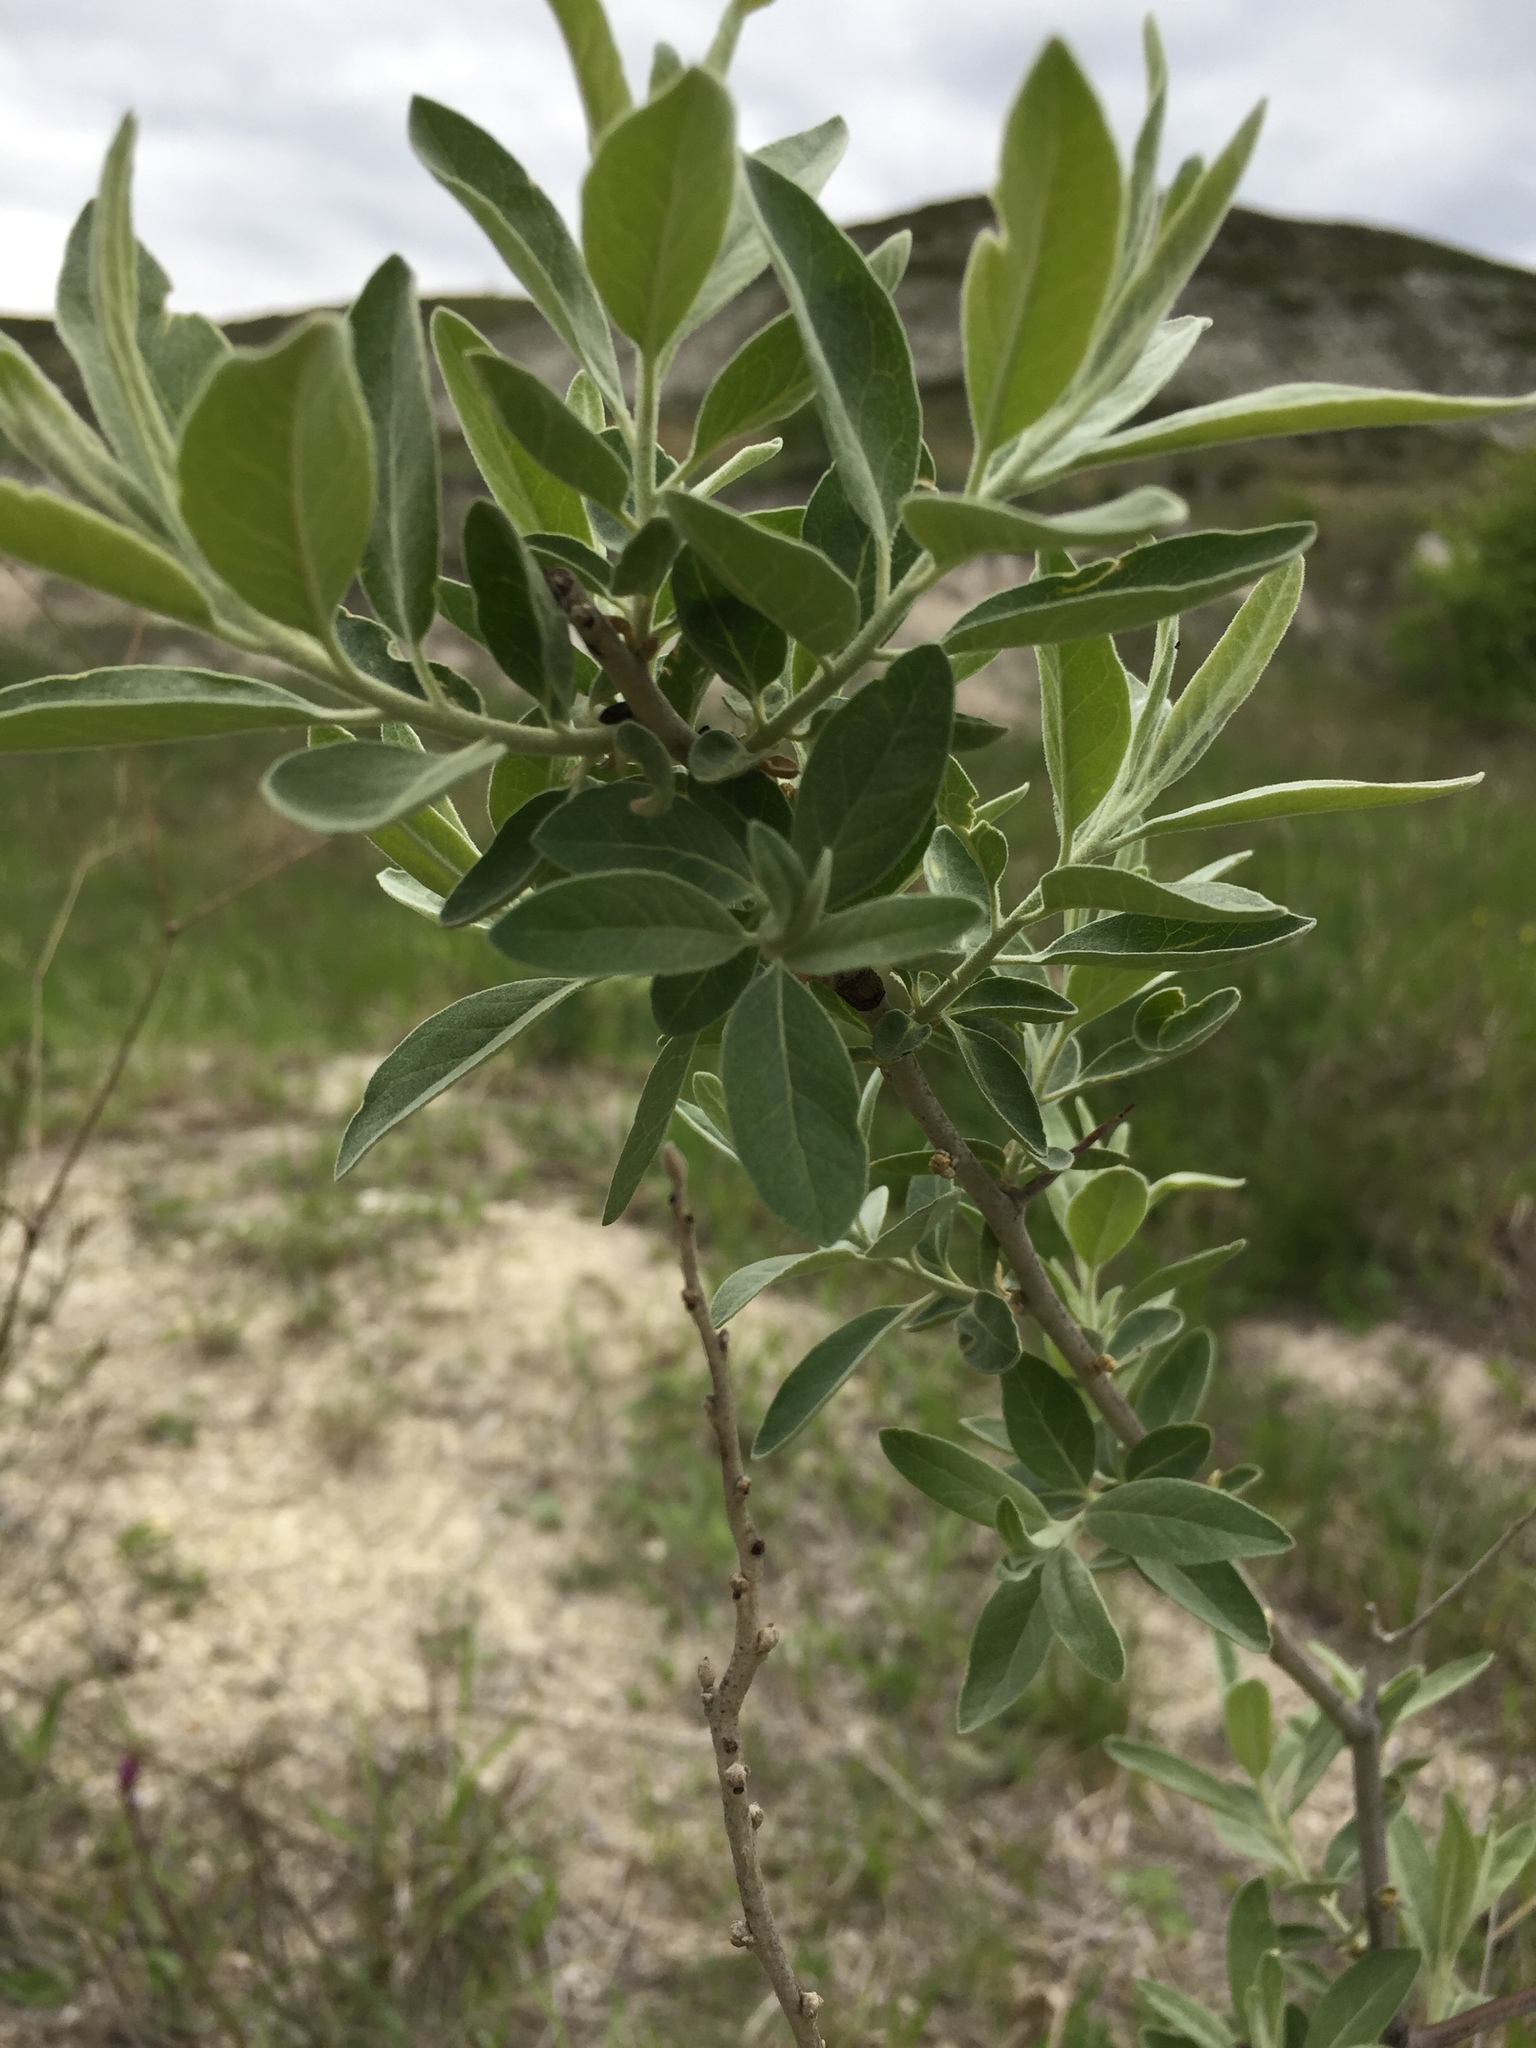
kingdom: Plantae
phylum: Tracheophyta
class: Magnoliopsida
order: Rosales
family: Elaeagnaceae
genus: Elaeagnus
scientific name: Elaeagnus angustifolia
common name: Russian olive
